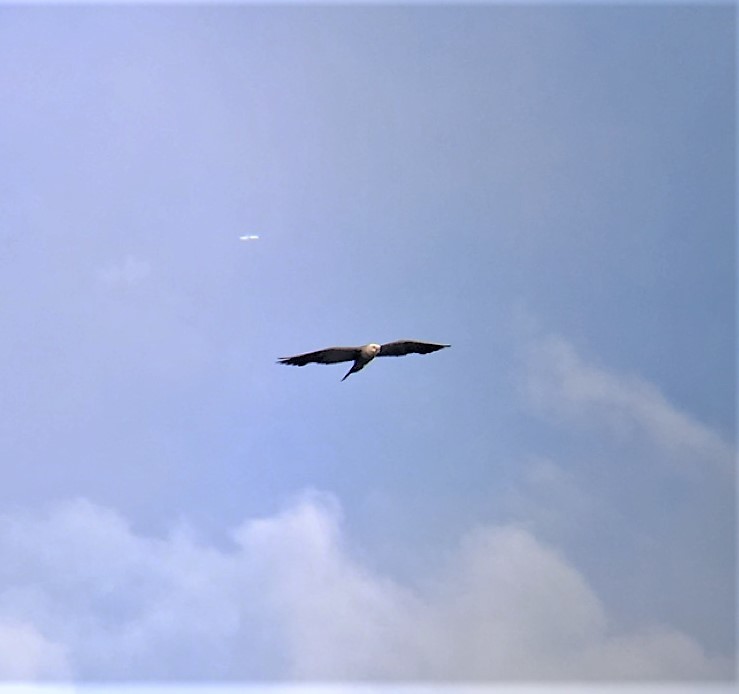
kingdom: Animalia
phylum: Chordata
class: Aves
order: Accipitriformes
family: Accipitridae
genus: Ictinia
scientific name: Ictinia mississippiensis
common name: Mississippi kite
